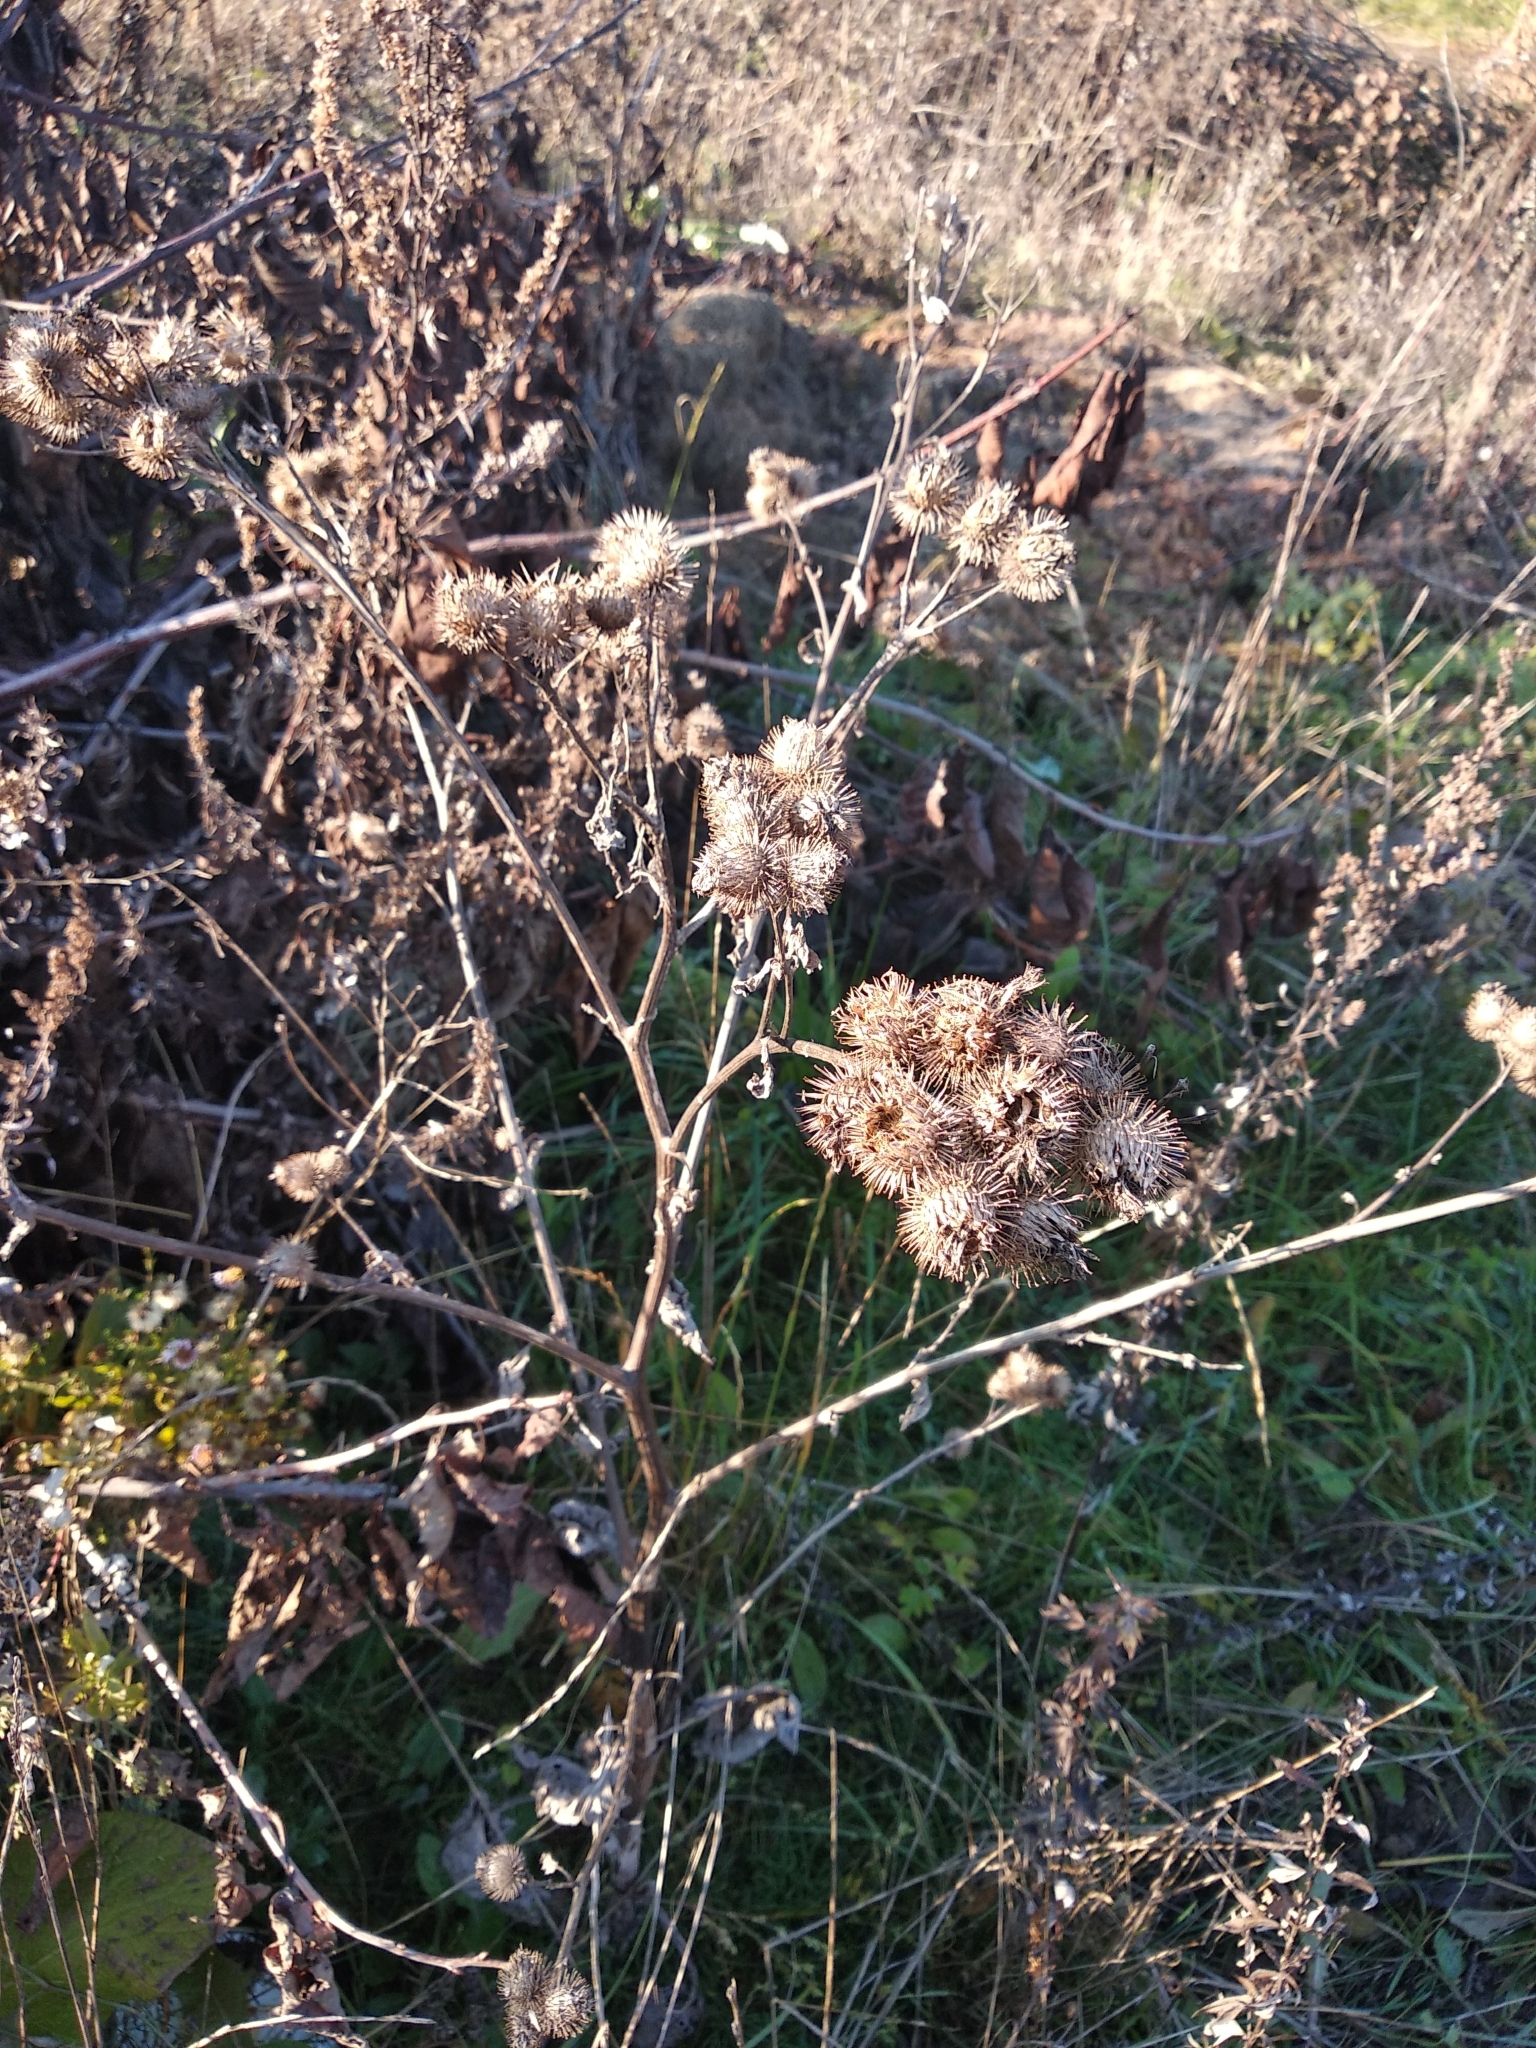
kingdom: Plantae
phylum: Tracheophyta
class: Magnoliopsida
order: Asterales
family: Asteraceae
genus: Arctium
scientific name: Arctium tomentosum
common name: Woolly burdock
